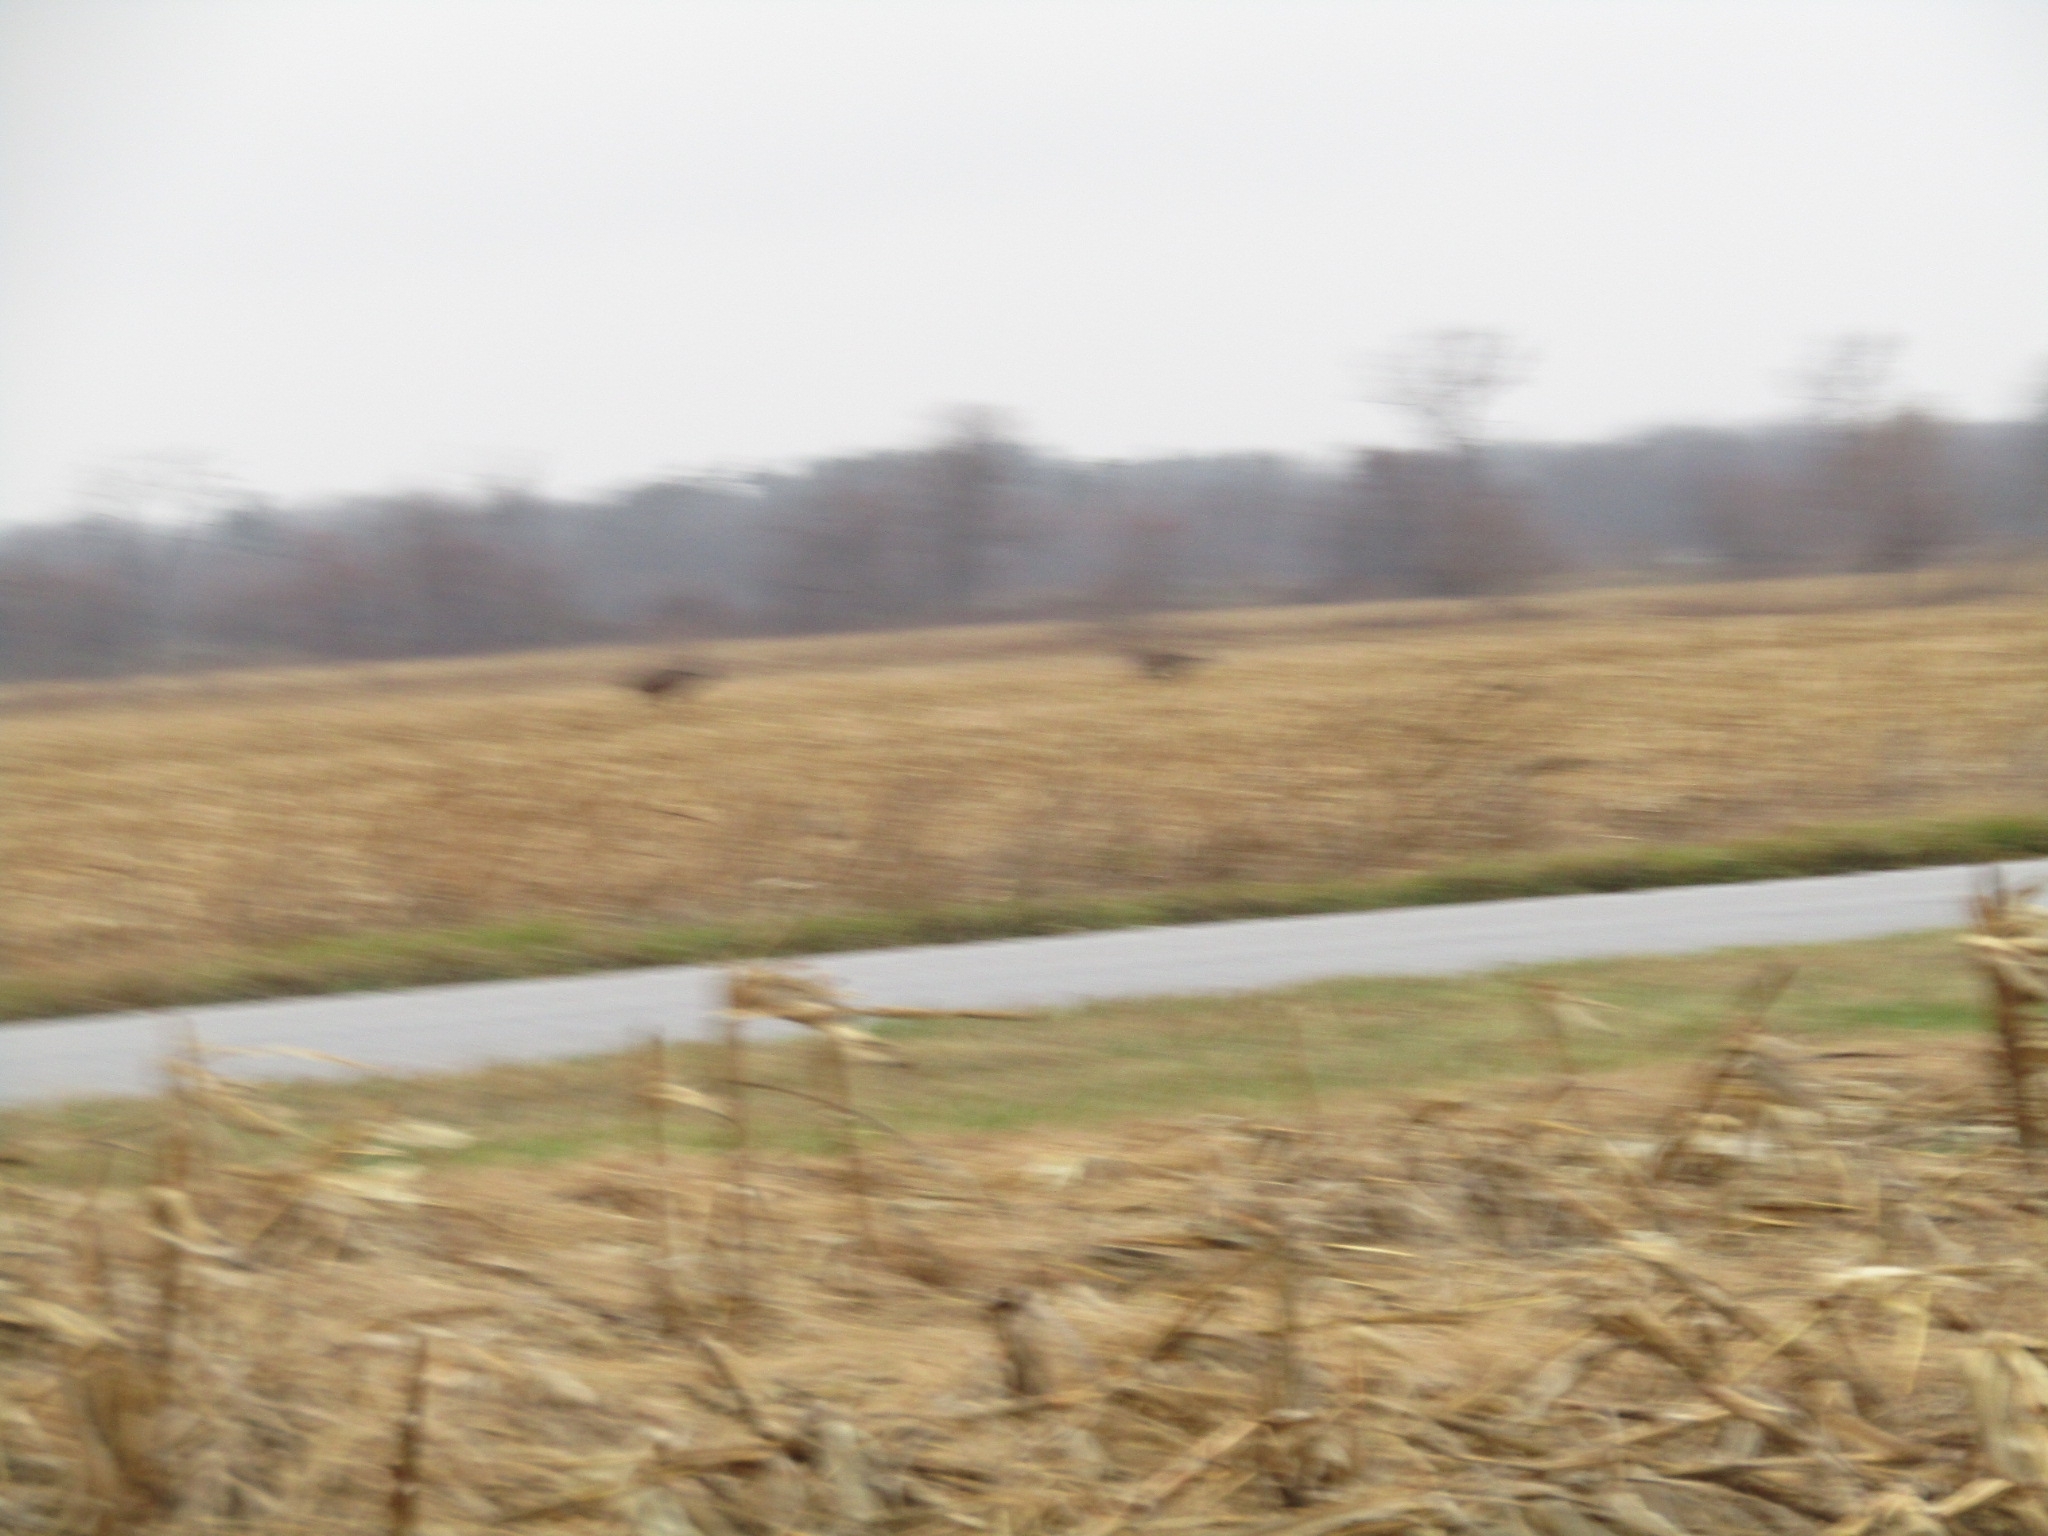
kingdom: Animalia
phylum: Chordata
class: Mammalia
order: Artiodactyla
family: Cervidae
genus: Odocoileus
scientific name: Odocoileus virginianus
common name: White-tailed deer
